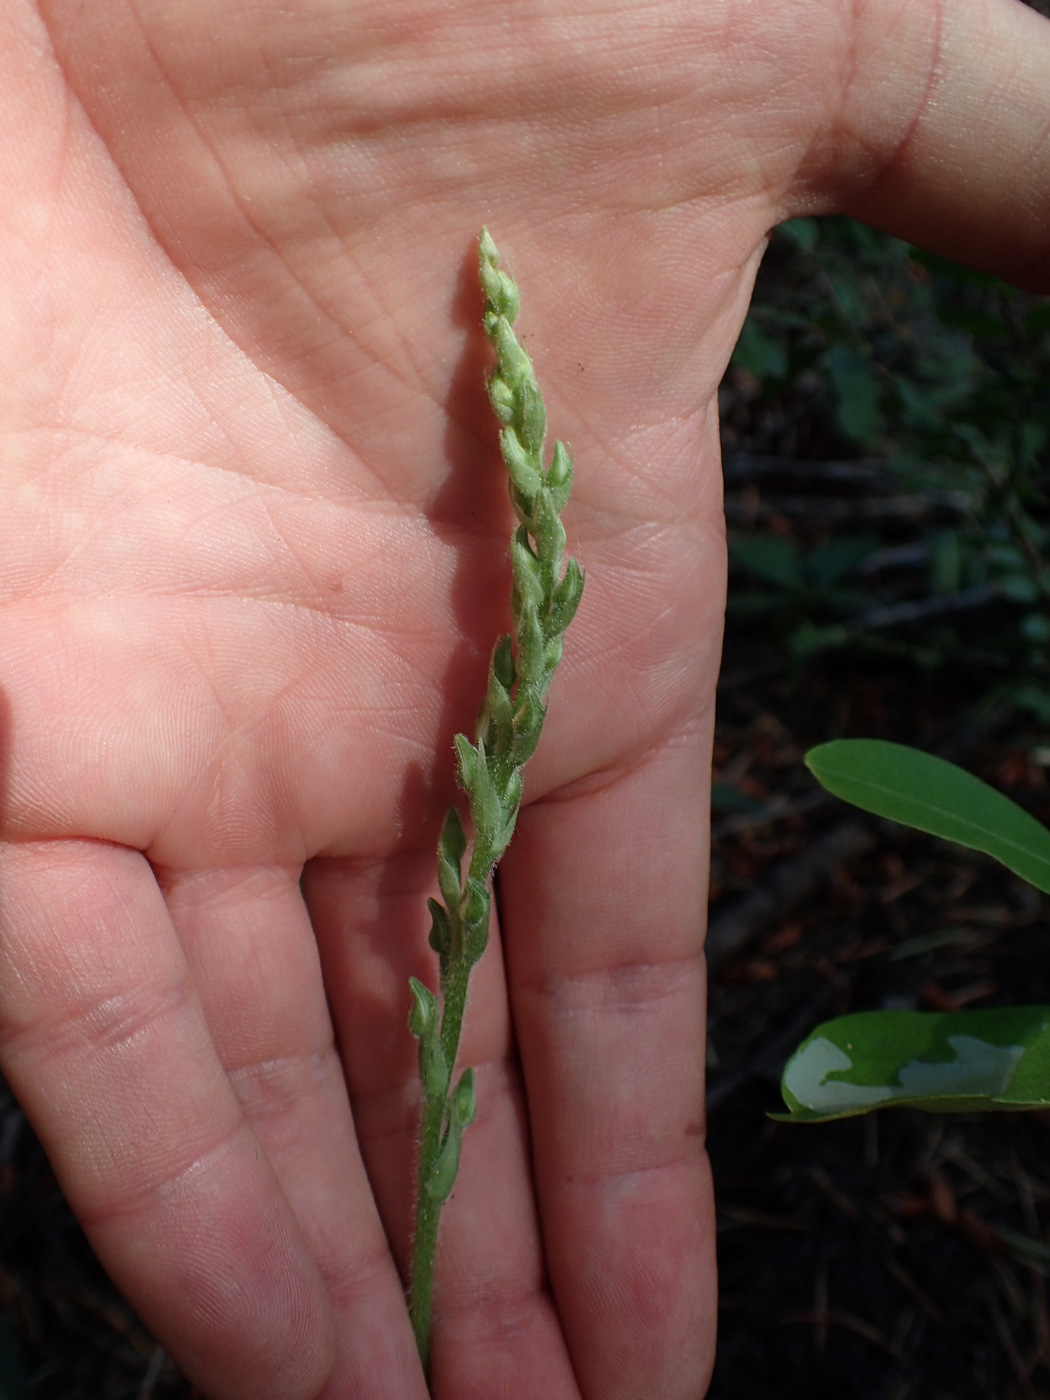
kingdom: Plantae
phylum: Tracheophyta
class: Liliopsida
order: Asparagales
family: Orchidaceae
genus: Goodyera
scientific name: Goodyera oblongifolia
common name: Giant rattlesnake-plantain
